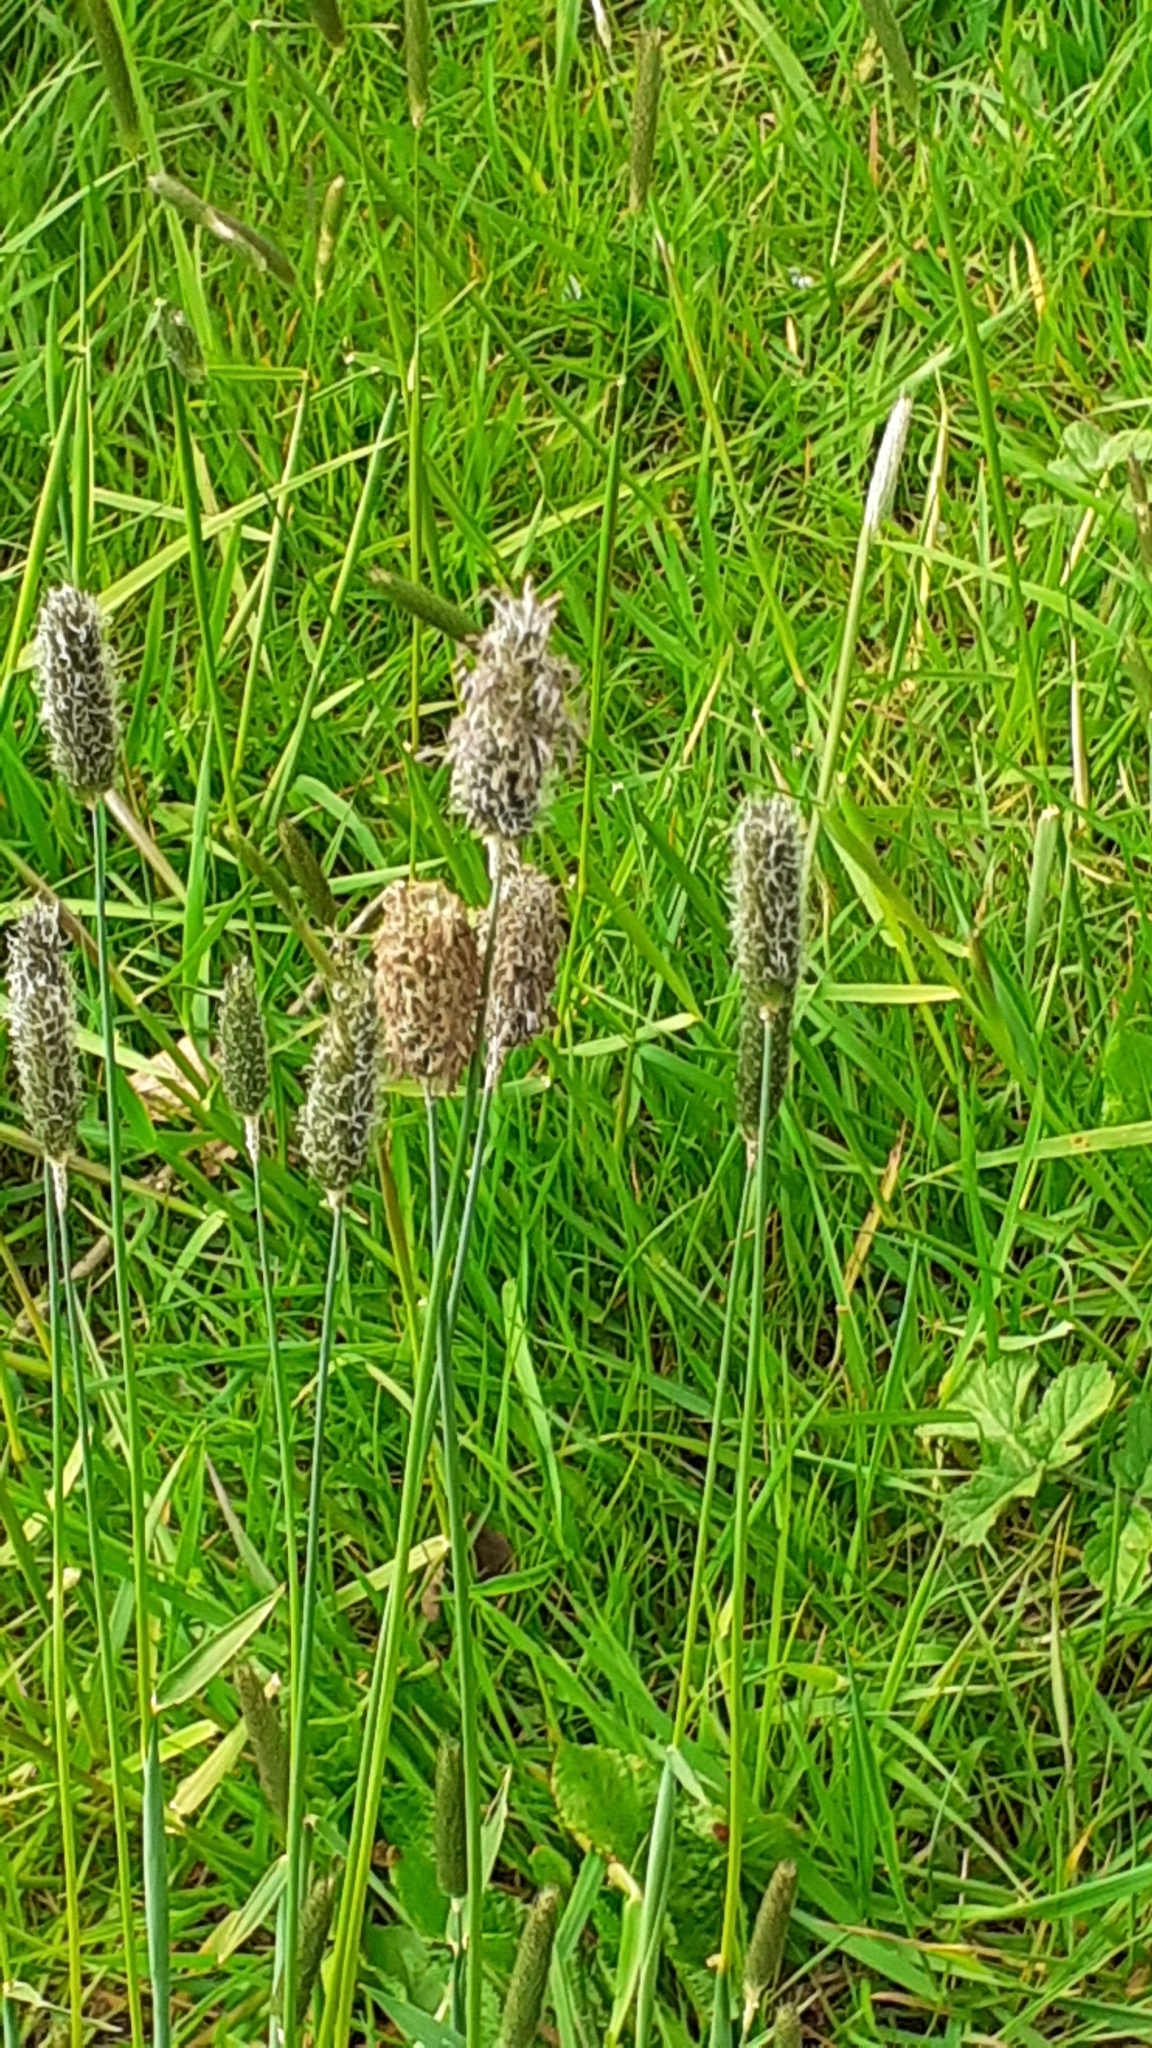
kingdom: Plantae
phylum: Tracheophyta
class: Liliopsida
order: Poales
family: Poaceae
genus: Alopecurus
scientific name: Alopecurus pratensis
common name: Meadow foxtail
